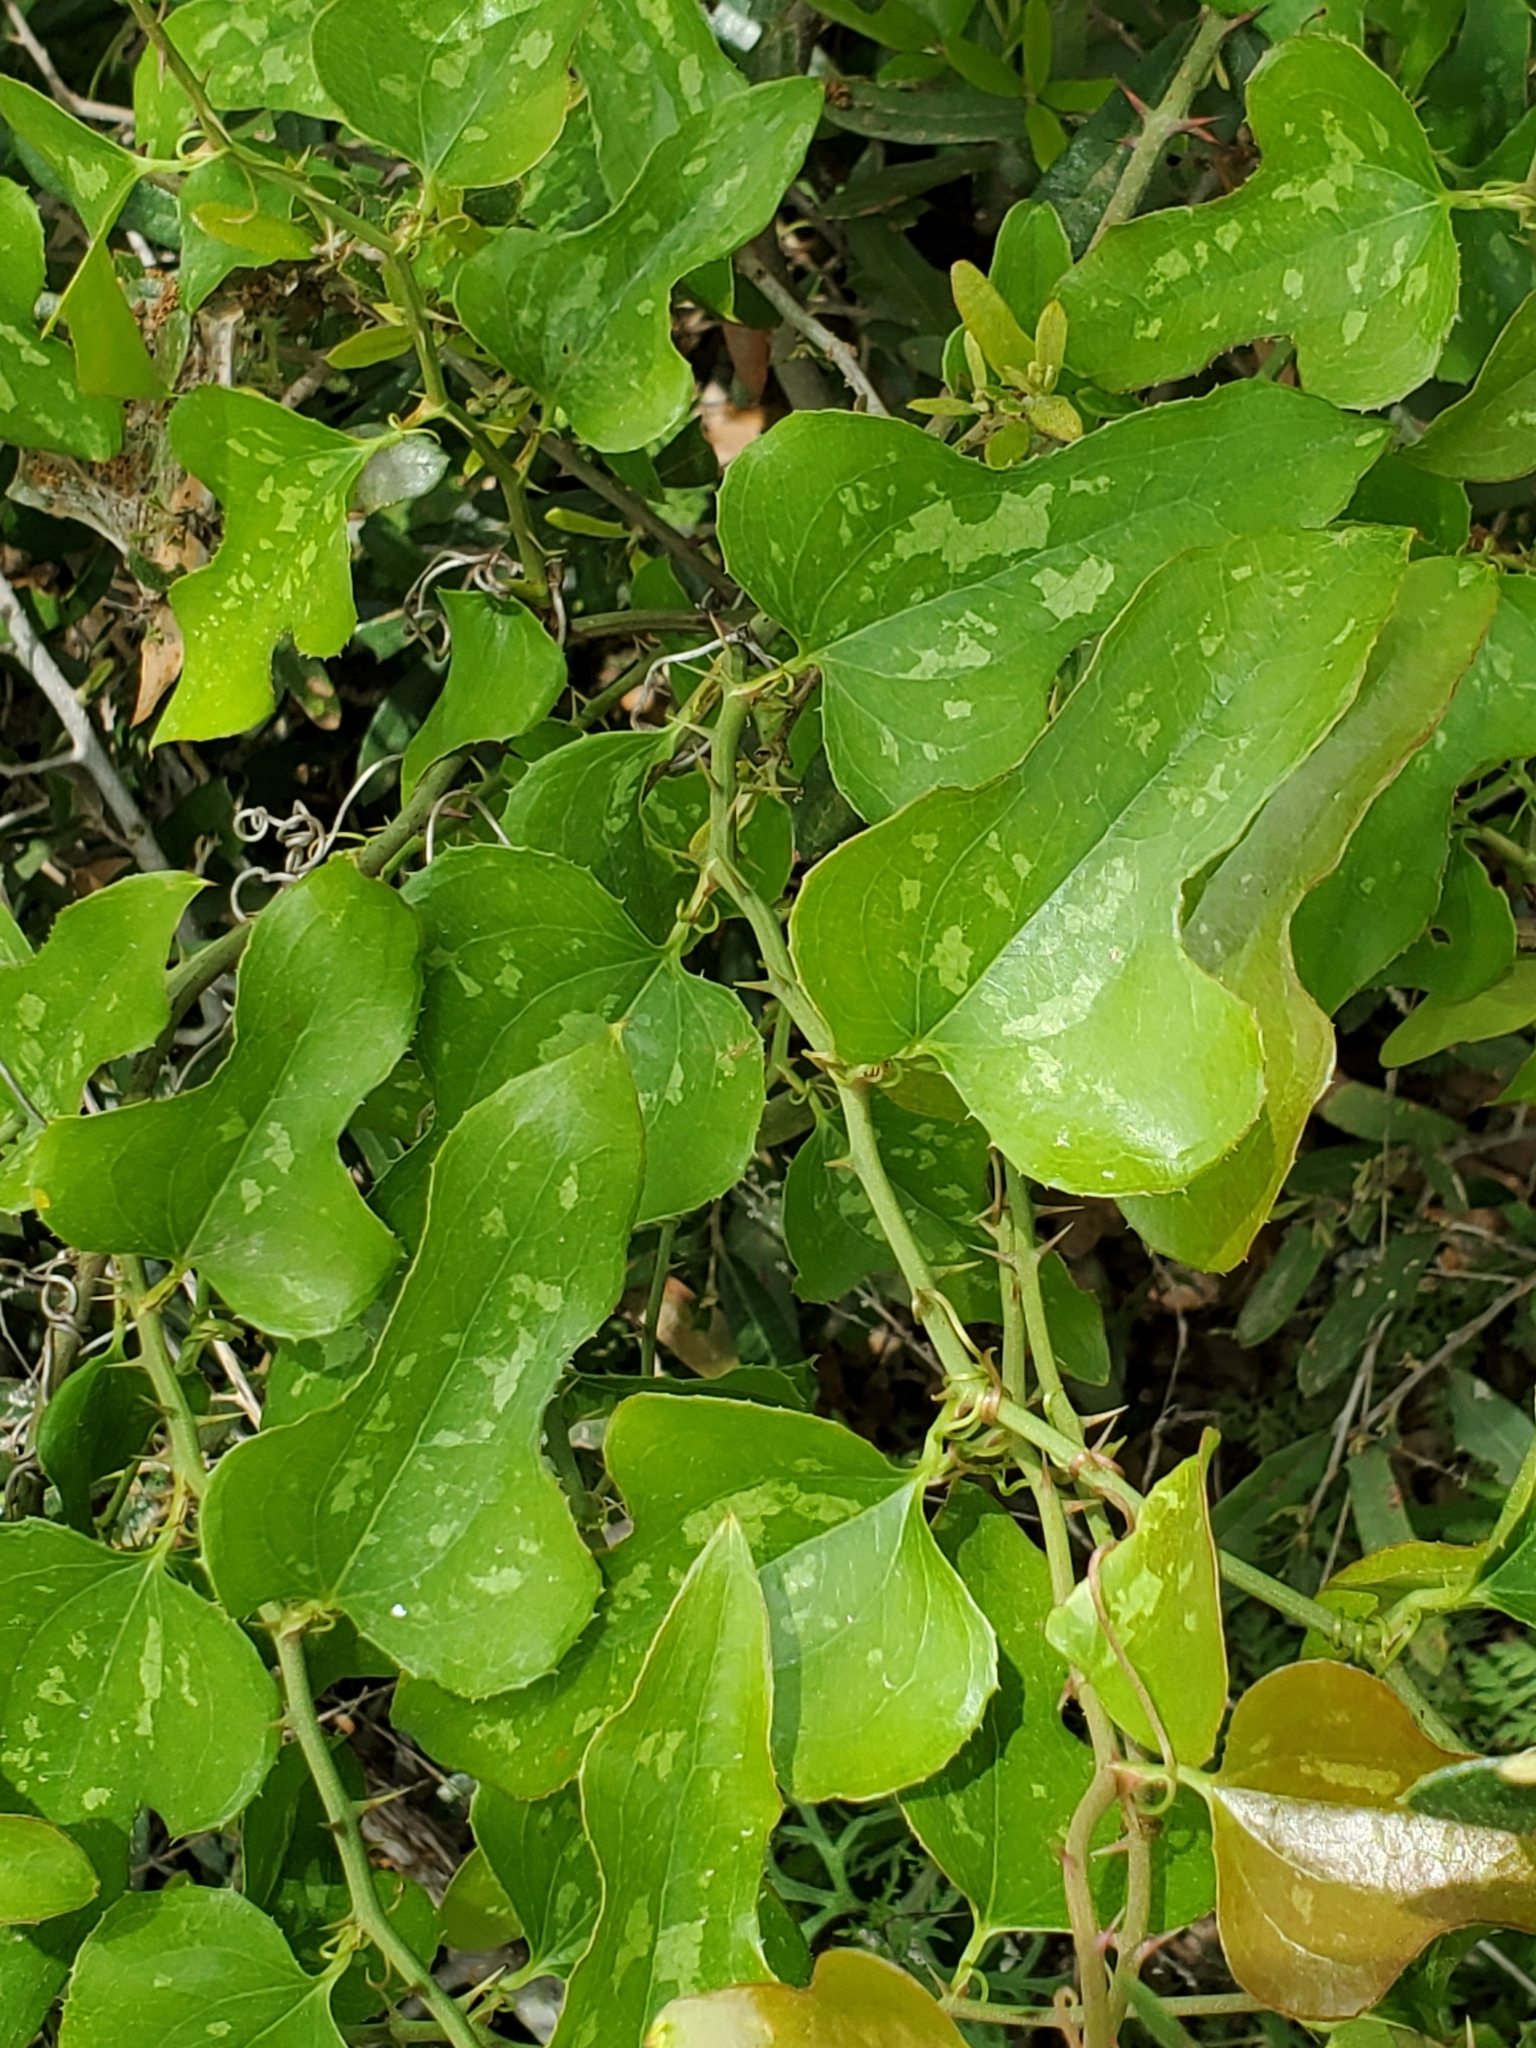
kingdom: Plantae
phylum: Tracheophyta
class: Liliopsida
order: Liliales
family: Smilacaceae
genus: Smilax
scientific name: Smilax bona-nox
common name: Catbrier
